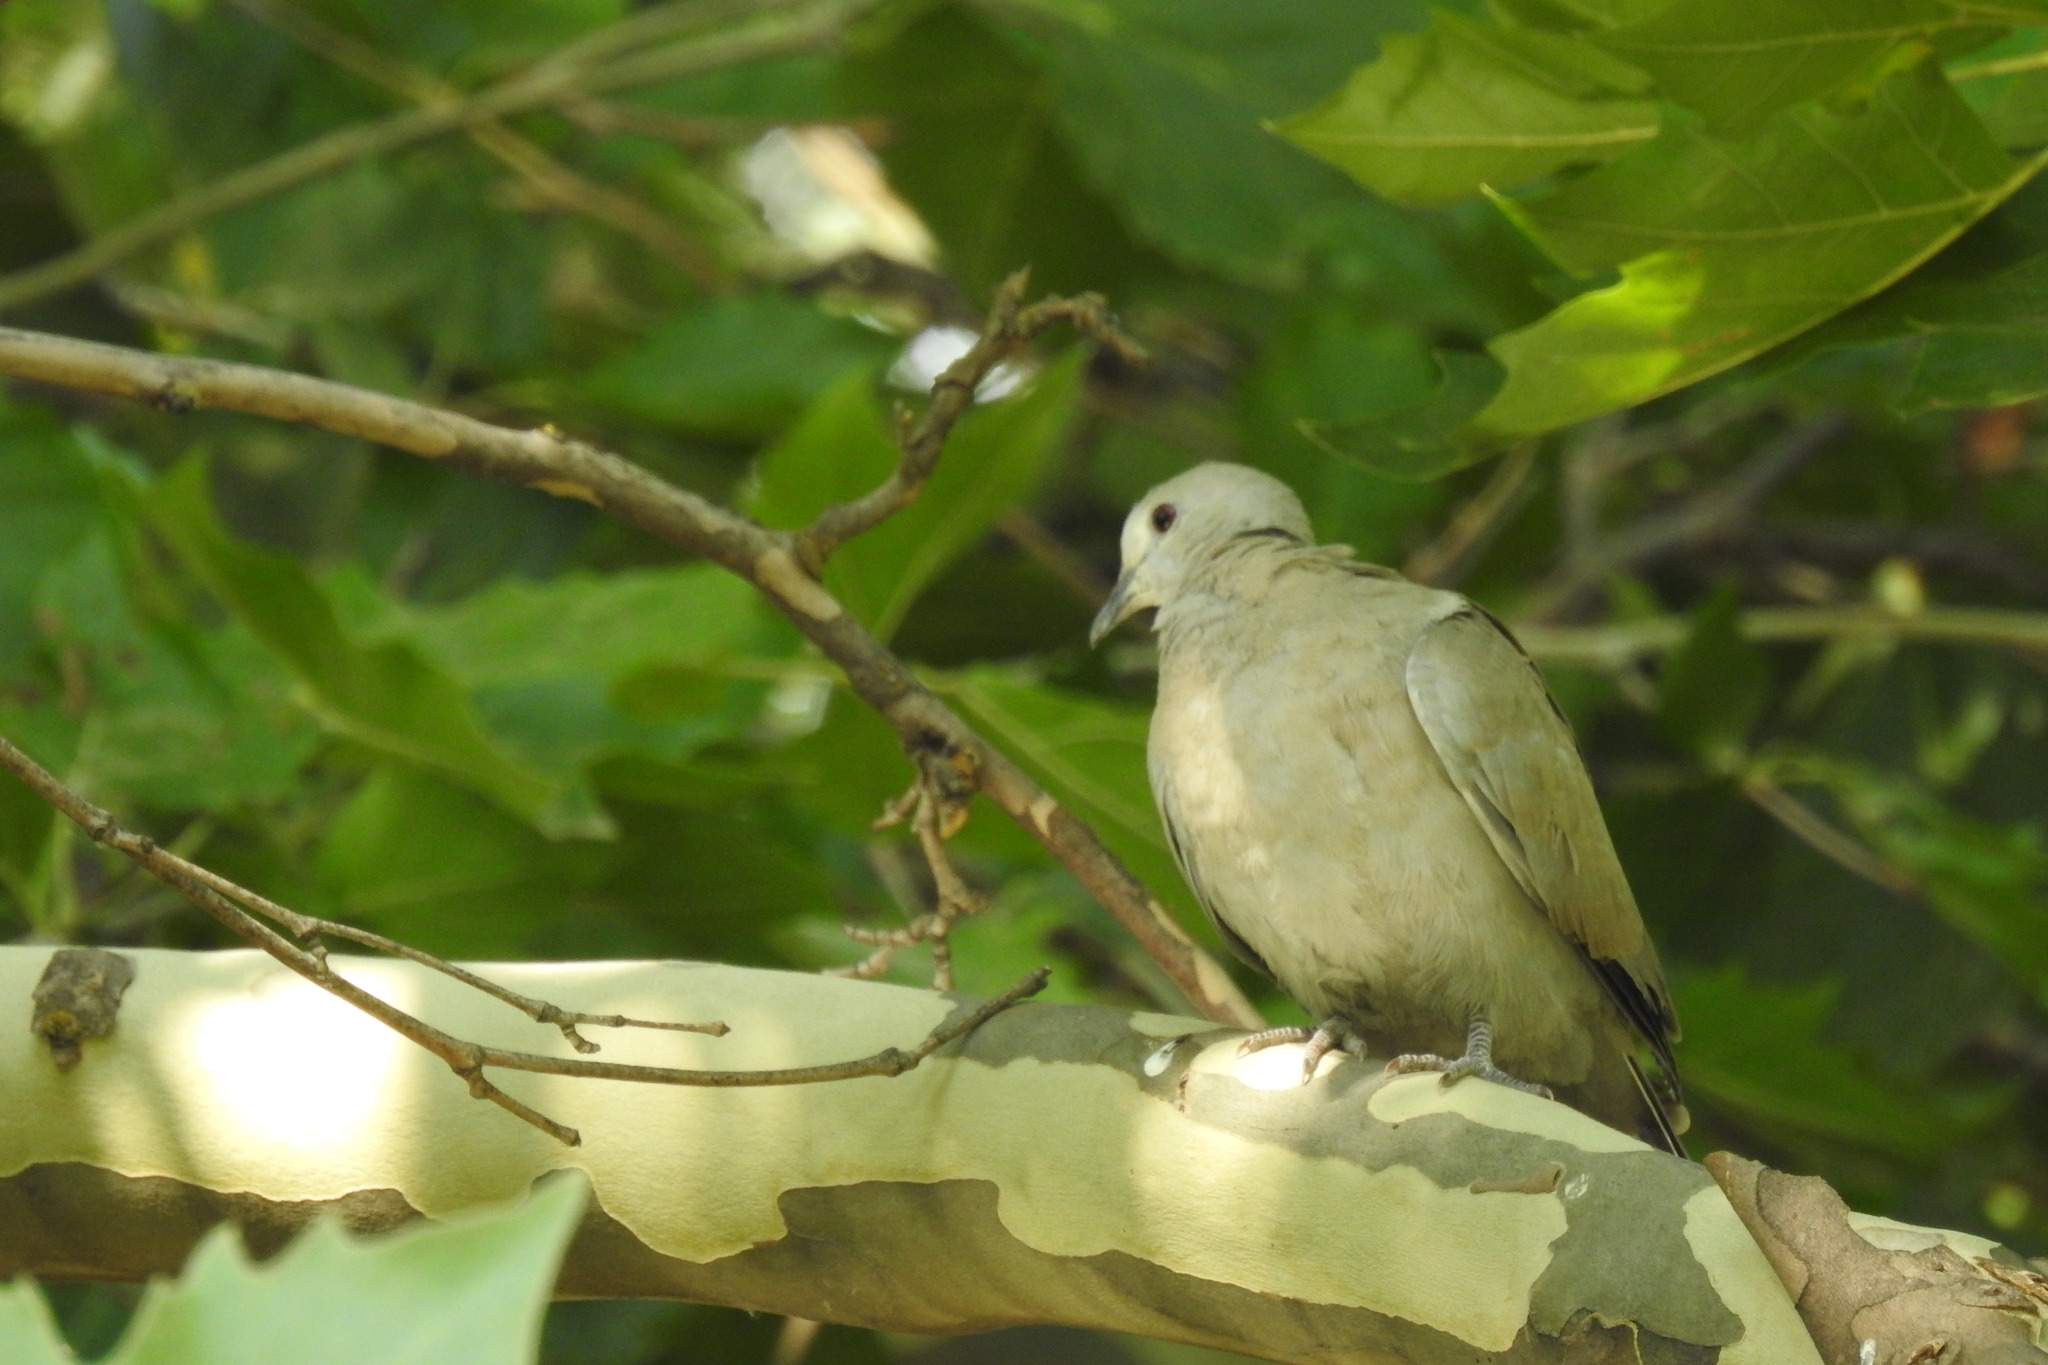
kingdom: Animalia
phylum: Chordata
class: Aves
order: Columbiformes
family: Columbidae
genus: Streptopelia
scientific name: Streptopelia decaocto
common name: Eurasian collared dove
